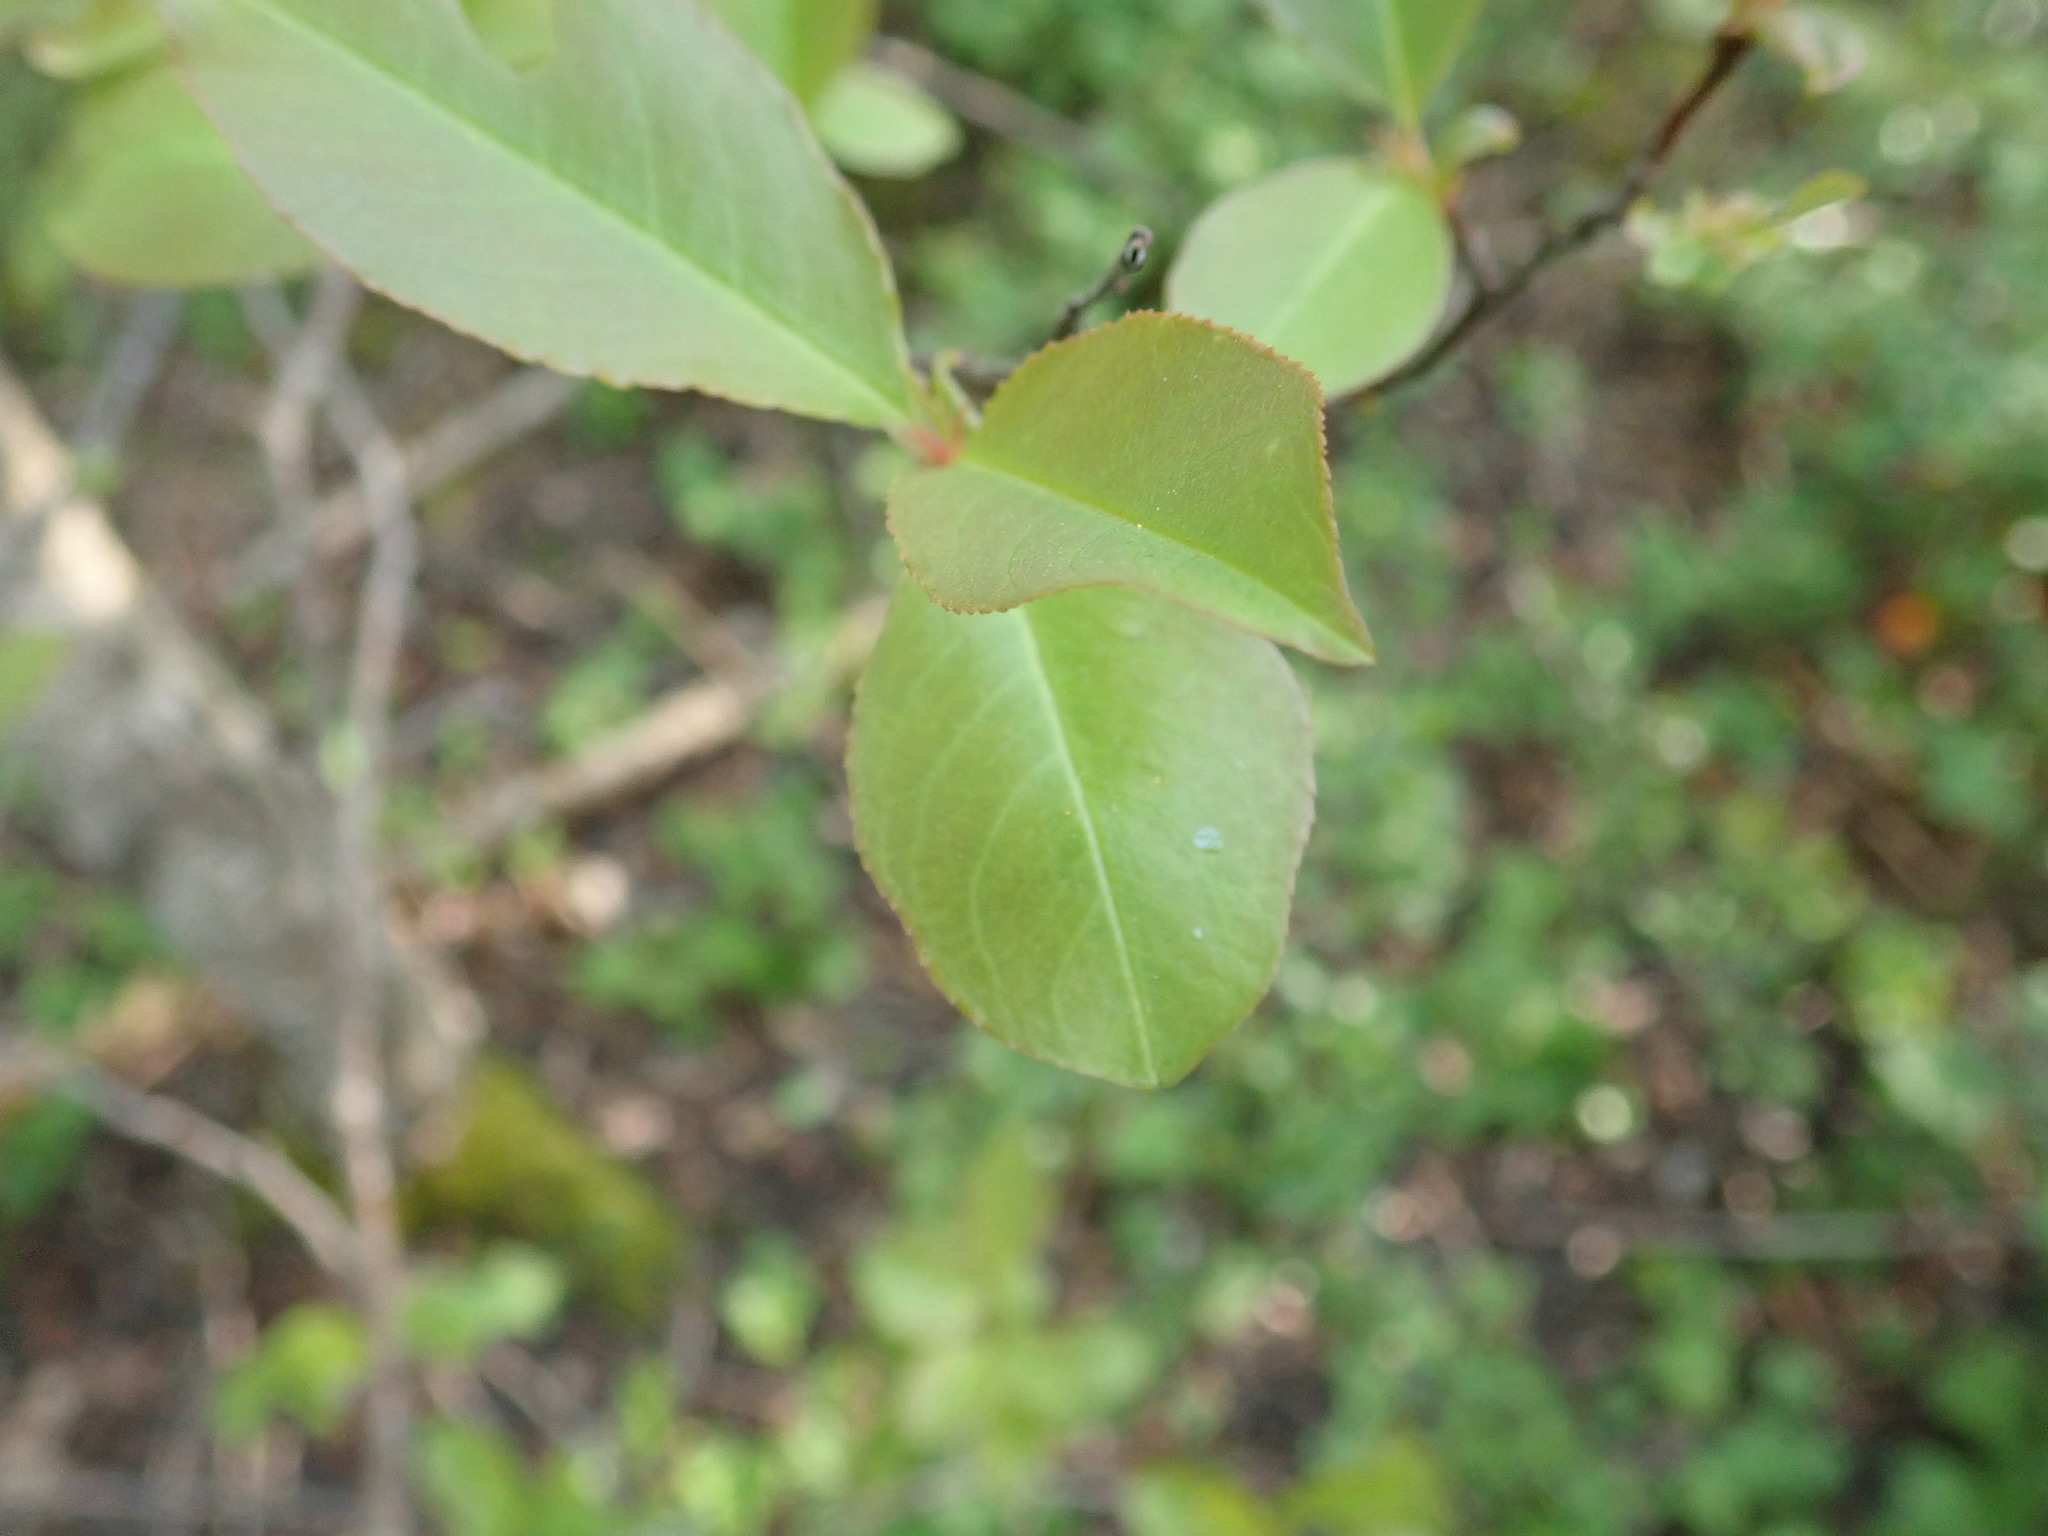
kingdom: Plantae
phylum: Tracheophyta
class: Magnoliopsida
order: Rosales
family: Rosaceae
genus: Prunus
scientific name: Prunus serotina
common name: Black cherry
